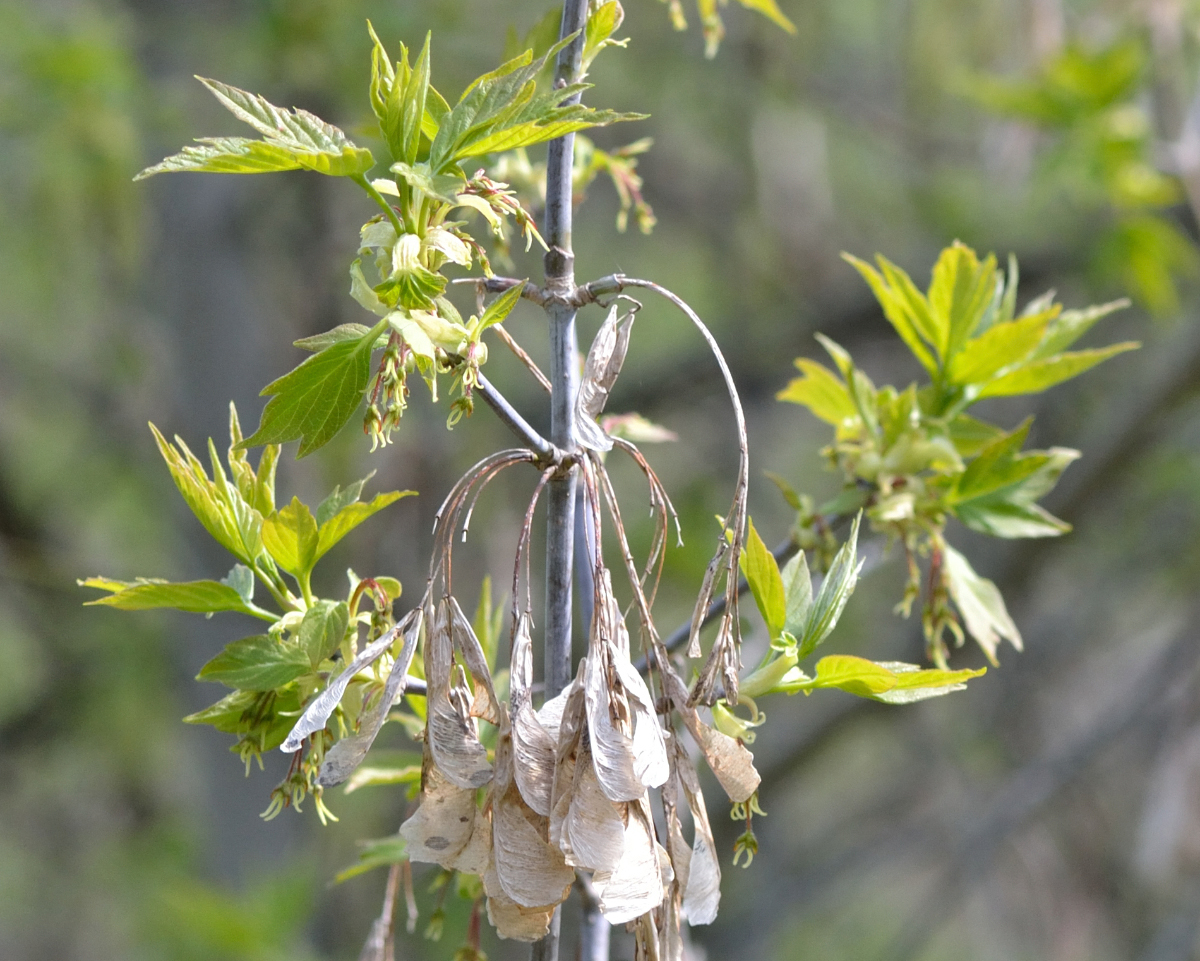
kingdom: Plantae
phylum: Tracheophyta
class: Magnoliopsida
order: Sapindales
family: Sapindaceae
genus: Acer
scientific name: Acer negundo
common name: Ashleaf maple
